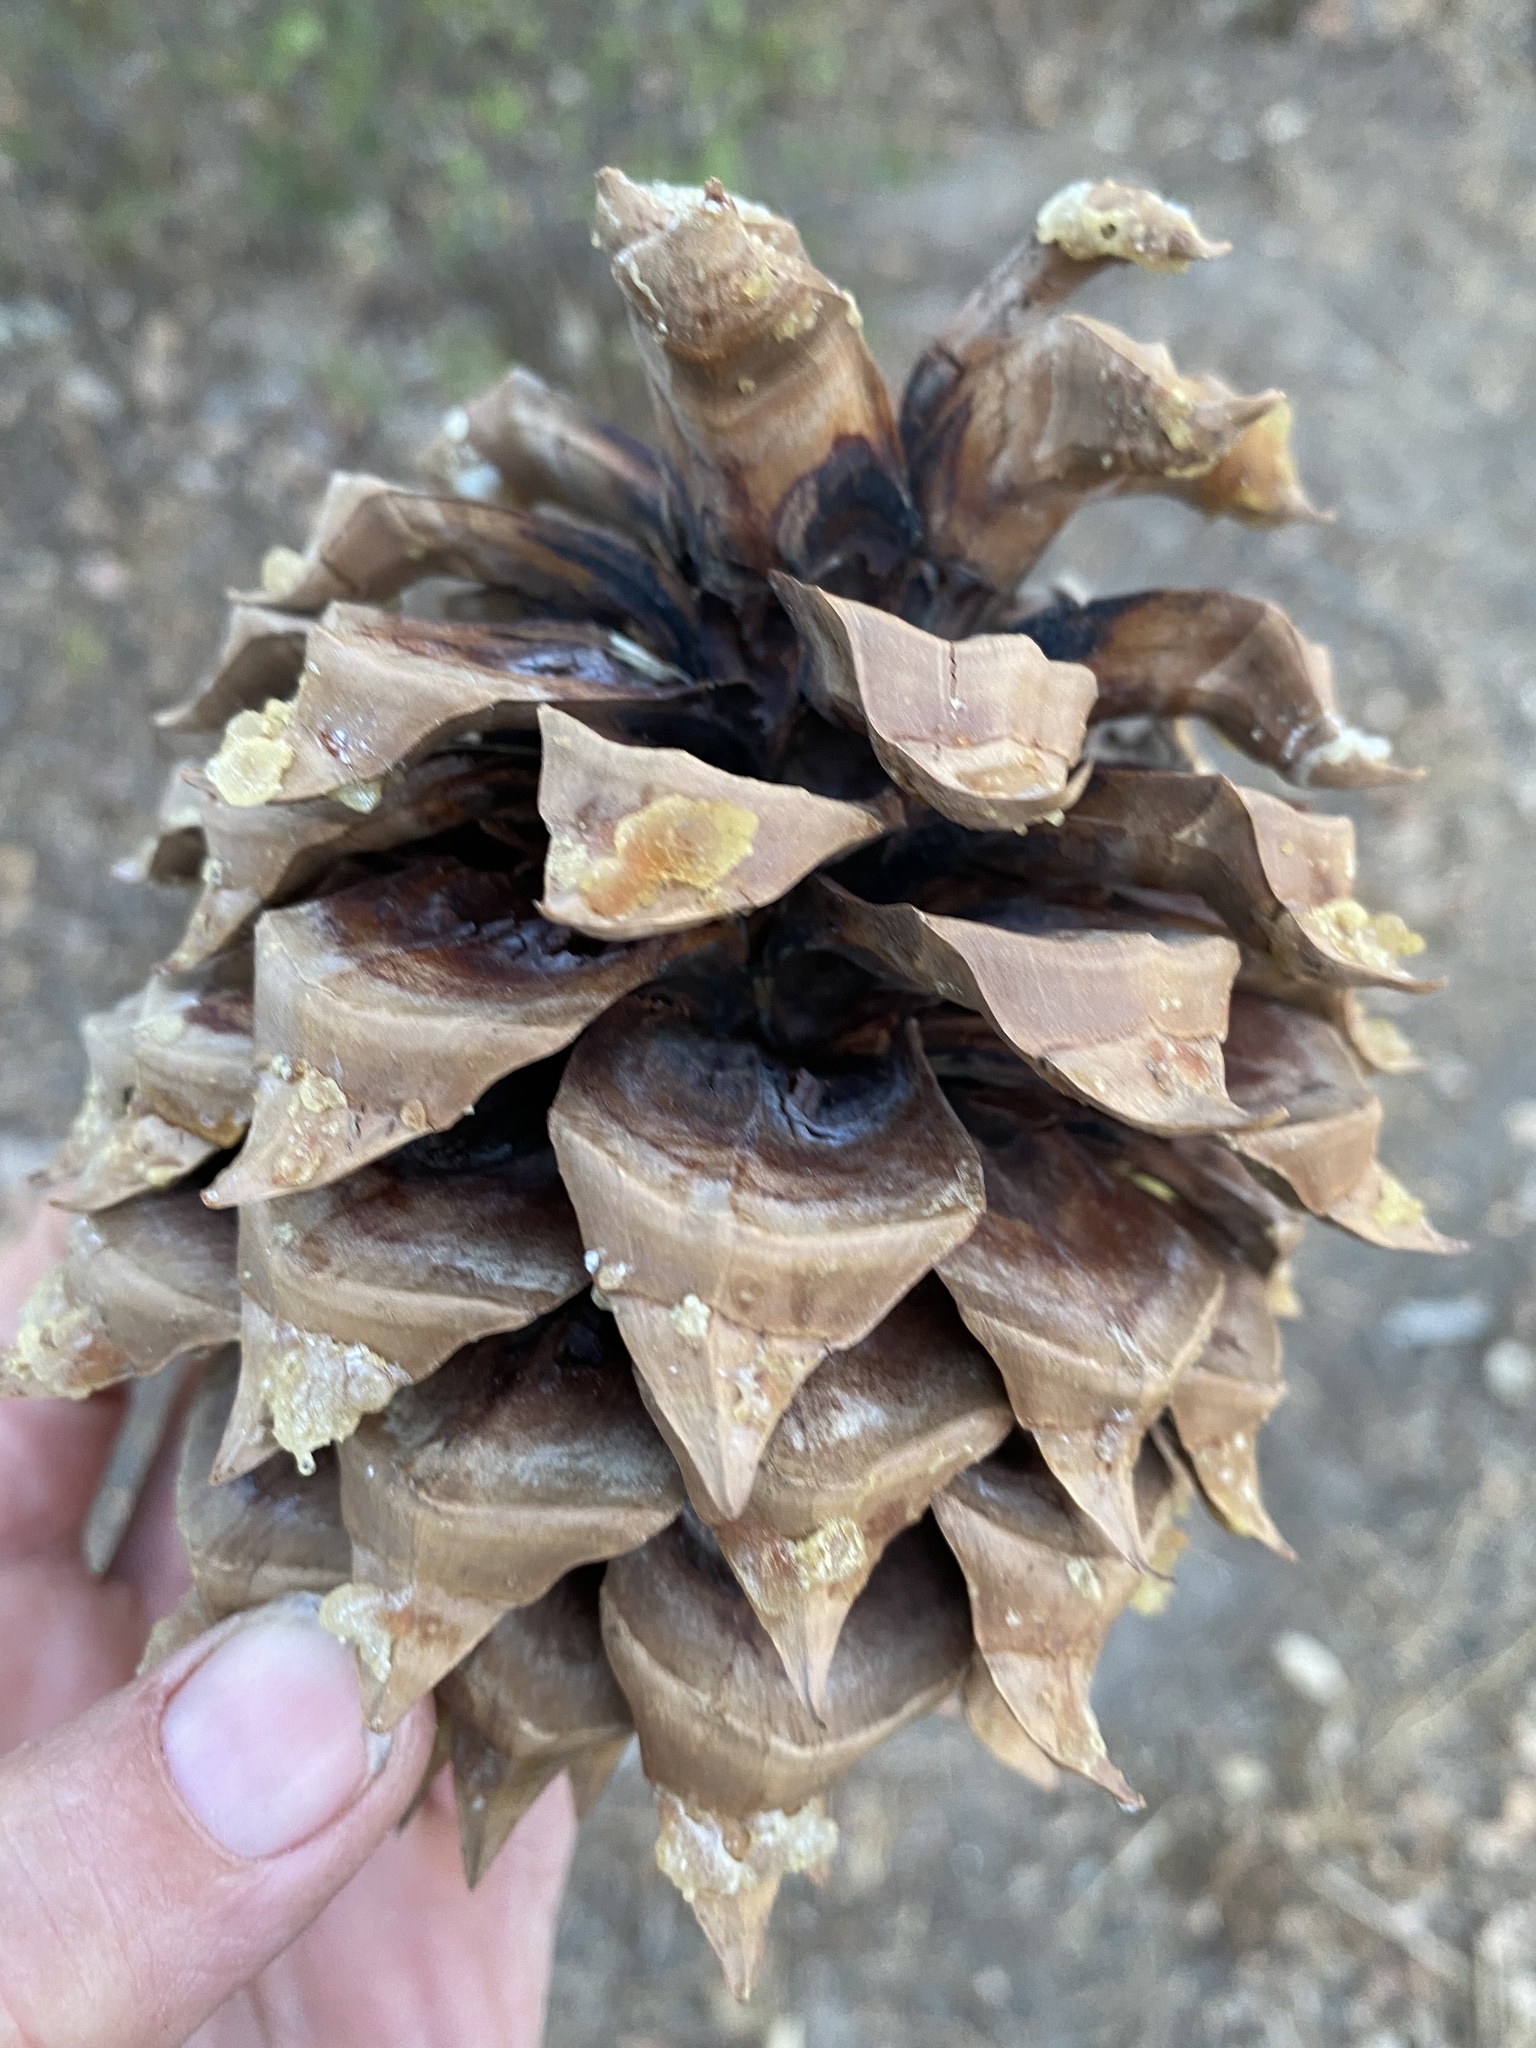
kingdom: Plantae
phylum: Tracheophyta
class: Pinopsida
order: Pinales
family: Pinaceae
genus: Pinus
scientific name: Pinus sabiniana
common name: Bull pine
